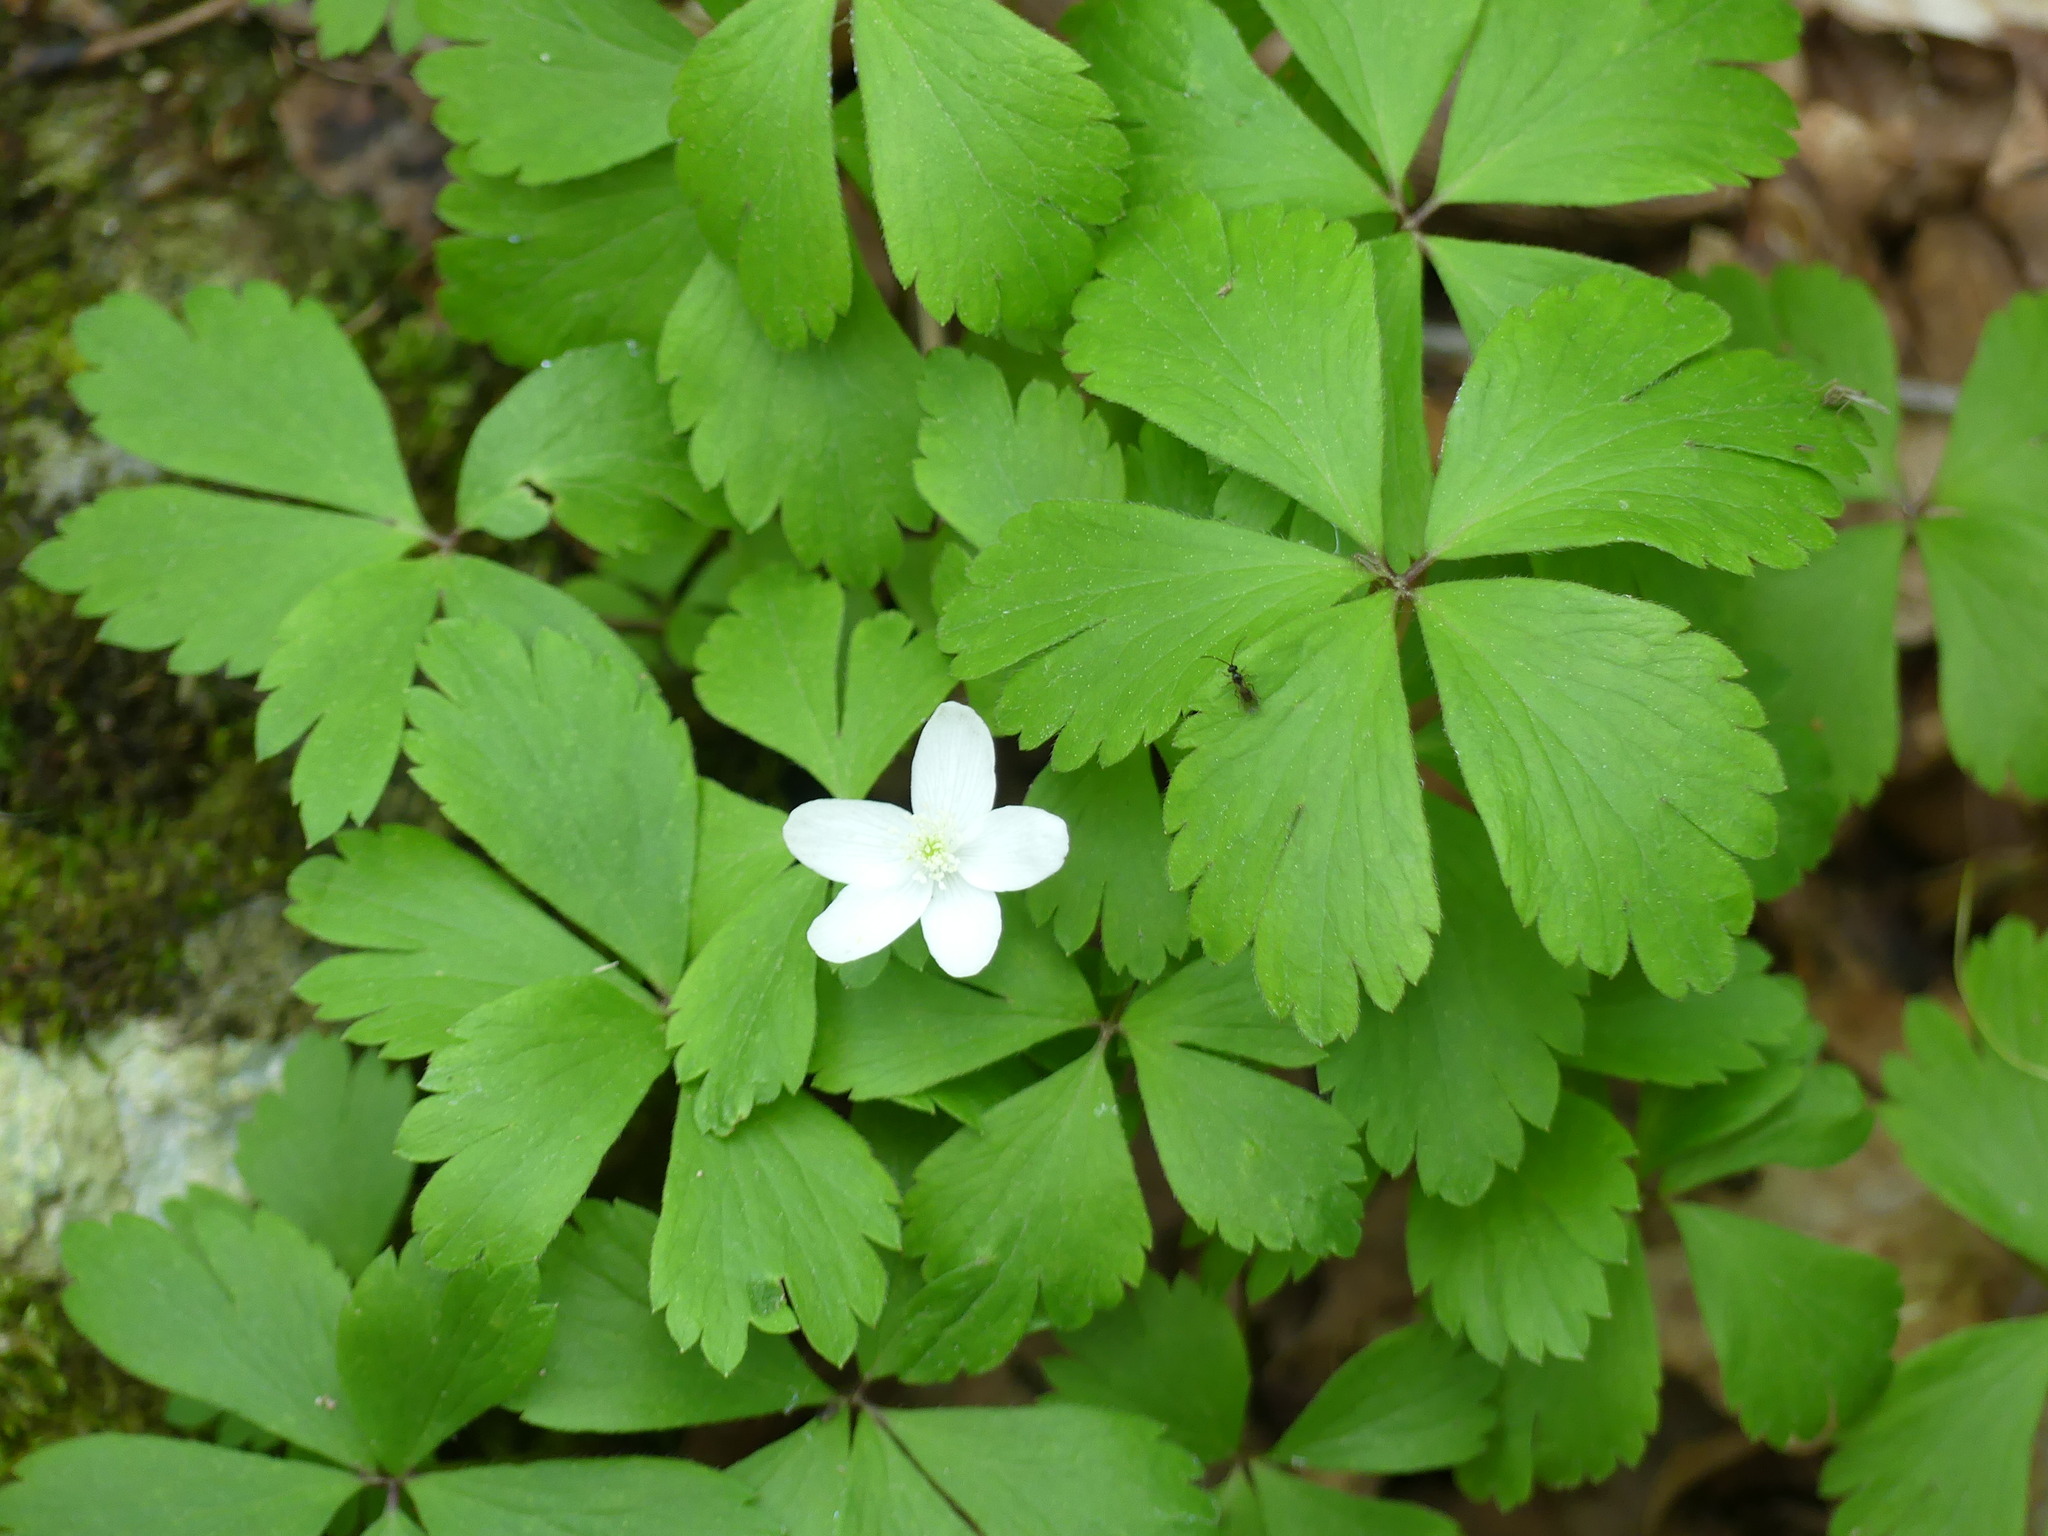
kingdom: Plantae
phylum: Tracheophyta
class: Magnoliopsida
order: Ranunculales
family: Ranunculaceae
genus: Anemone
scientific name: Anemone quinquefolia
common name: Wood anemone
